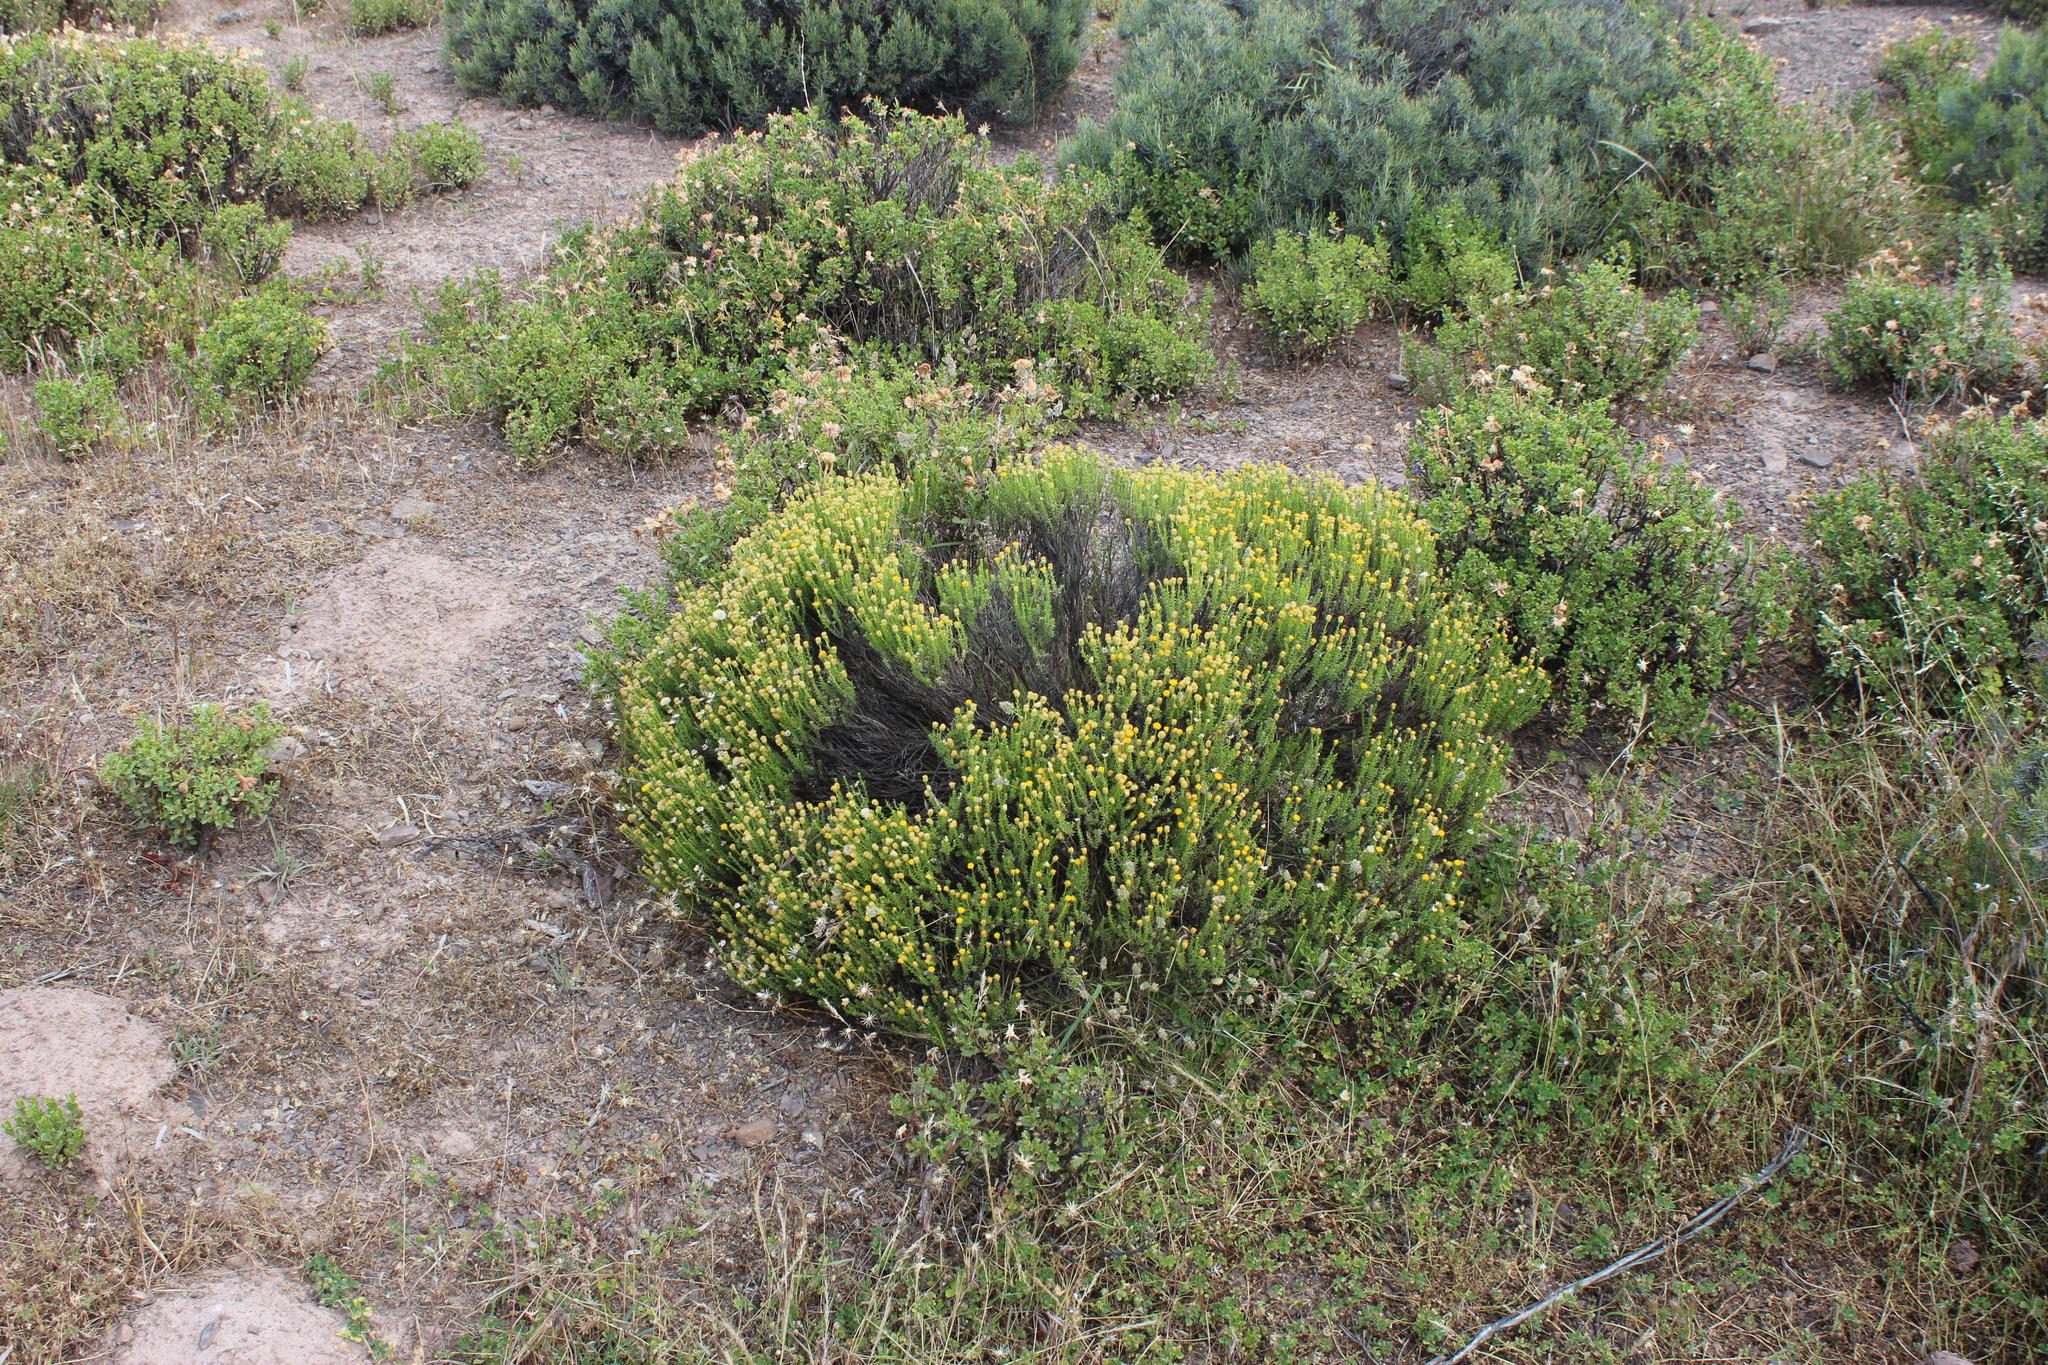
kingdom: Plantae
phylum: Tracheophyta
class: Magnoliopsida
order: Asterales
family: Asteraceae
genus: Chrysocoma
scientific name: Chrysocoma ciliata
